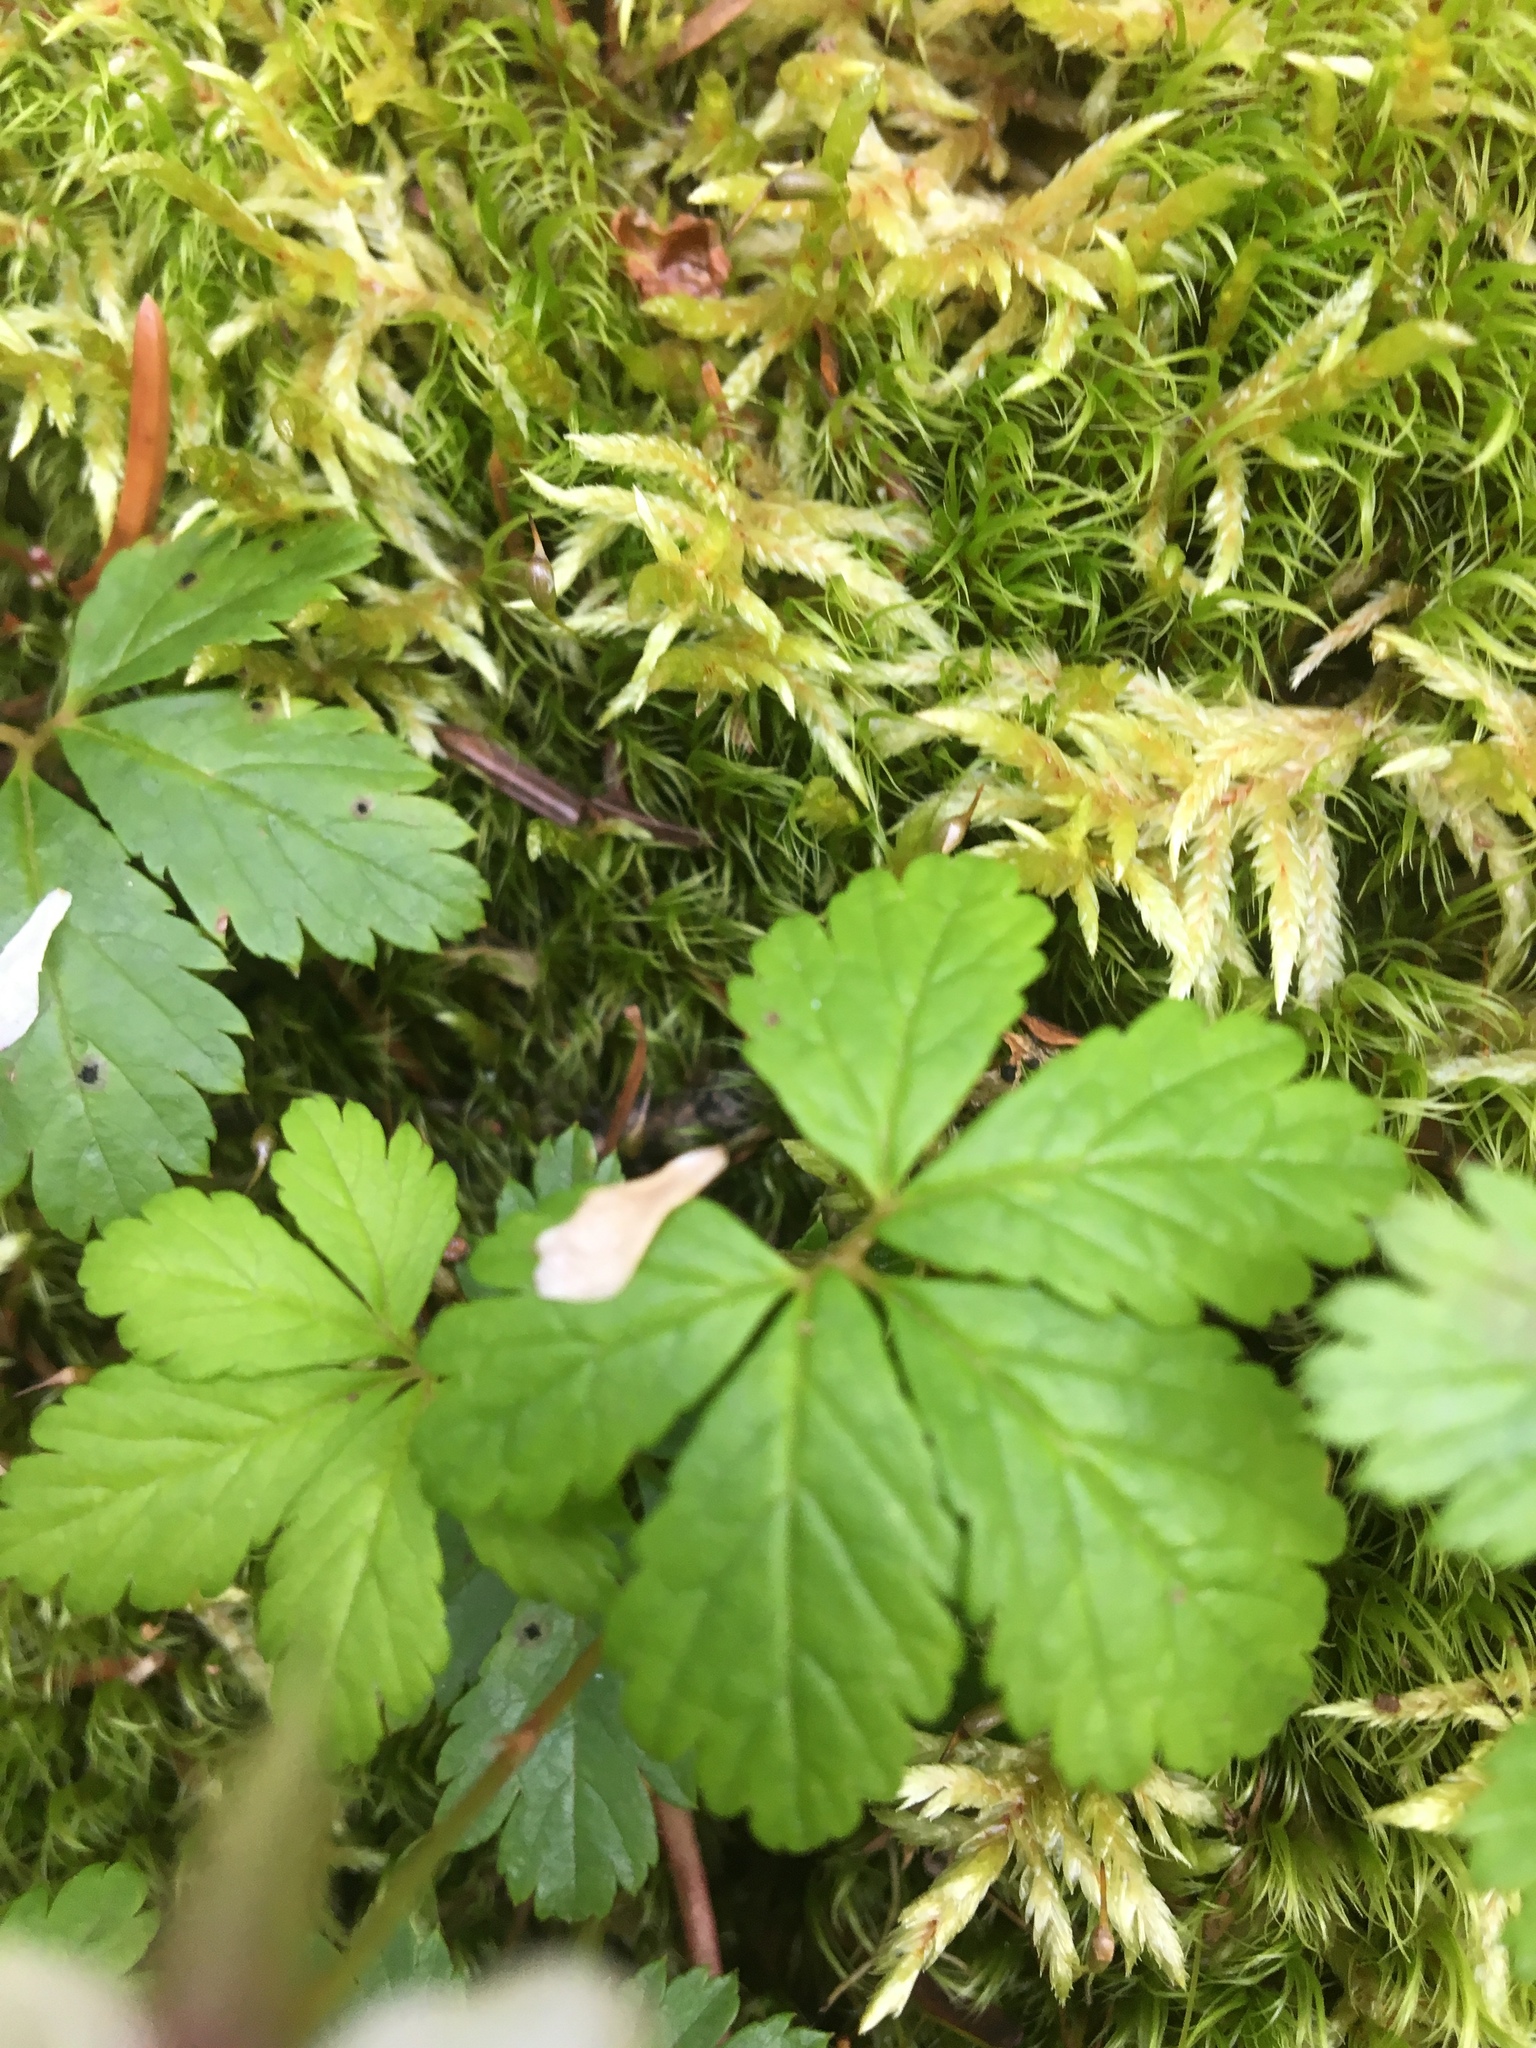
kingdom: Plantae
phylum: Tracheophyta
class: Magnoliopsida
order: Rosales
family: Rosaceae
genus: Rubus
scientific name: Rubus pedatus
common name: Creeping raspberry
